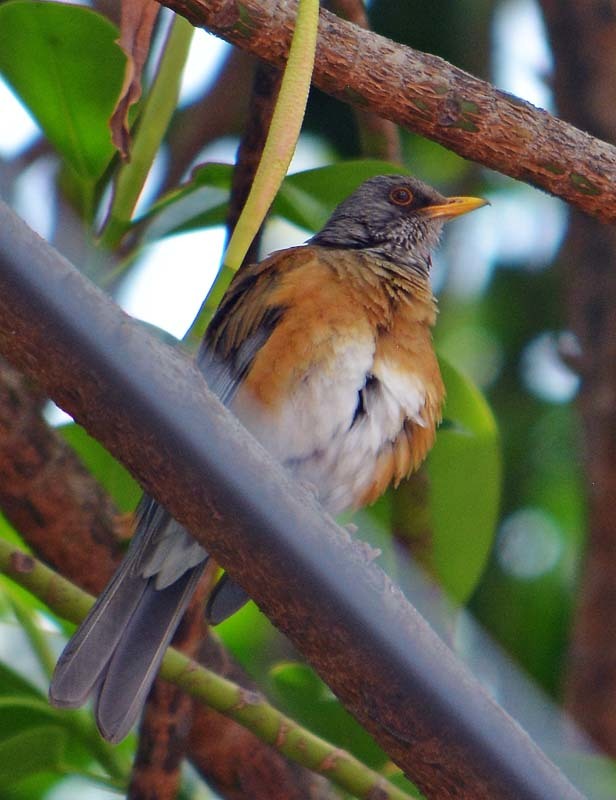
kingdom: Animalia
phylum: Chordata
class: Aves
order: Passeriformes
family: Turdidae
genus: Turdus
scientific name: Turdus rufopalliatus
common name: Rufous-backed robin
